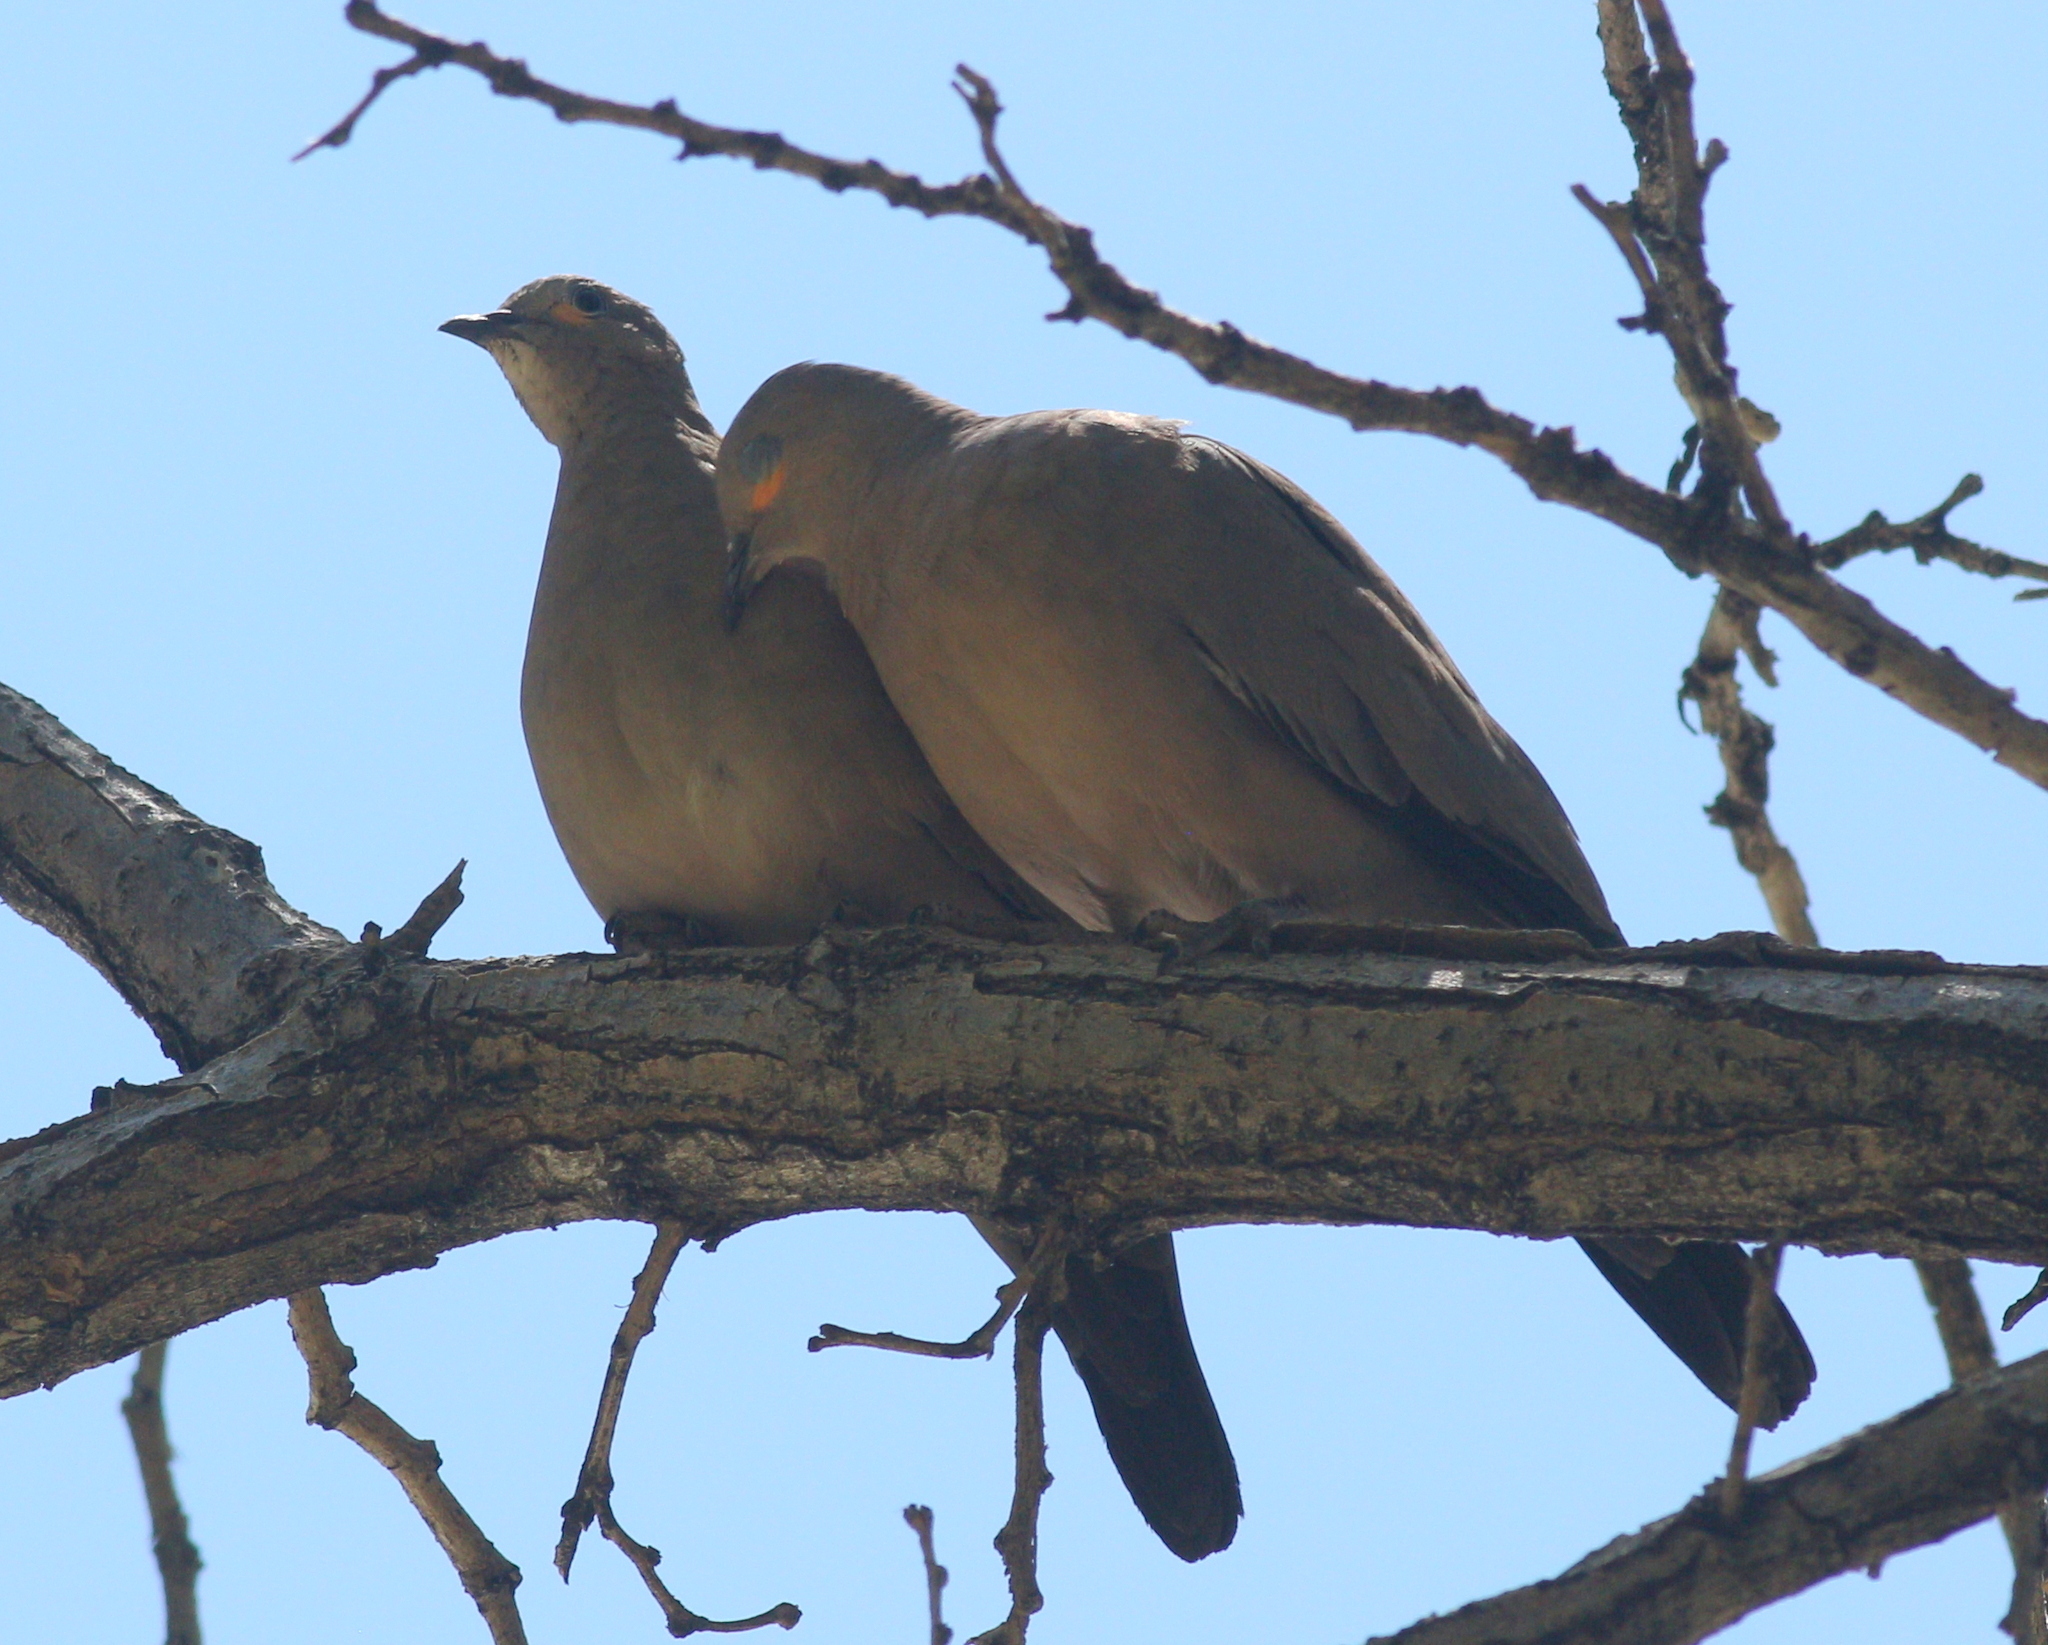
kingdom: Animalia
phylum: Chordata
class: Aves
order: Columbiformes
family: Columbidae
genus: Metriopelia
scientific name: Metriopelia melanoptera
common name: Black-winged ground dove
